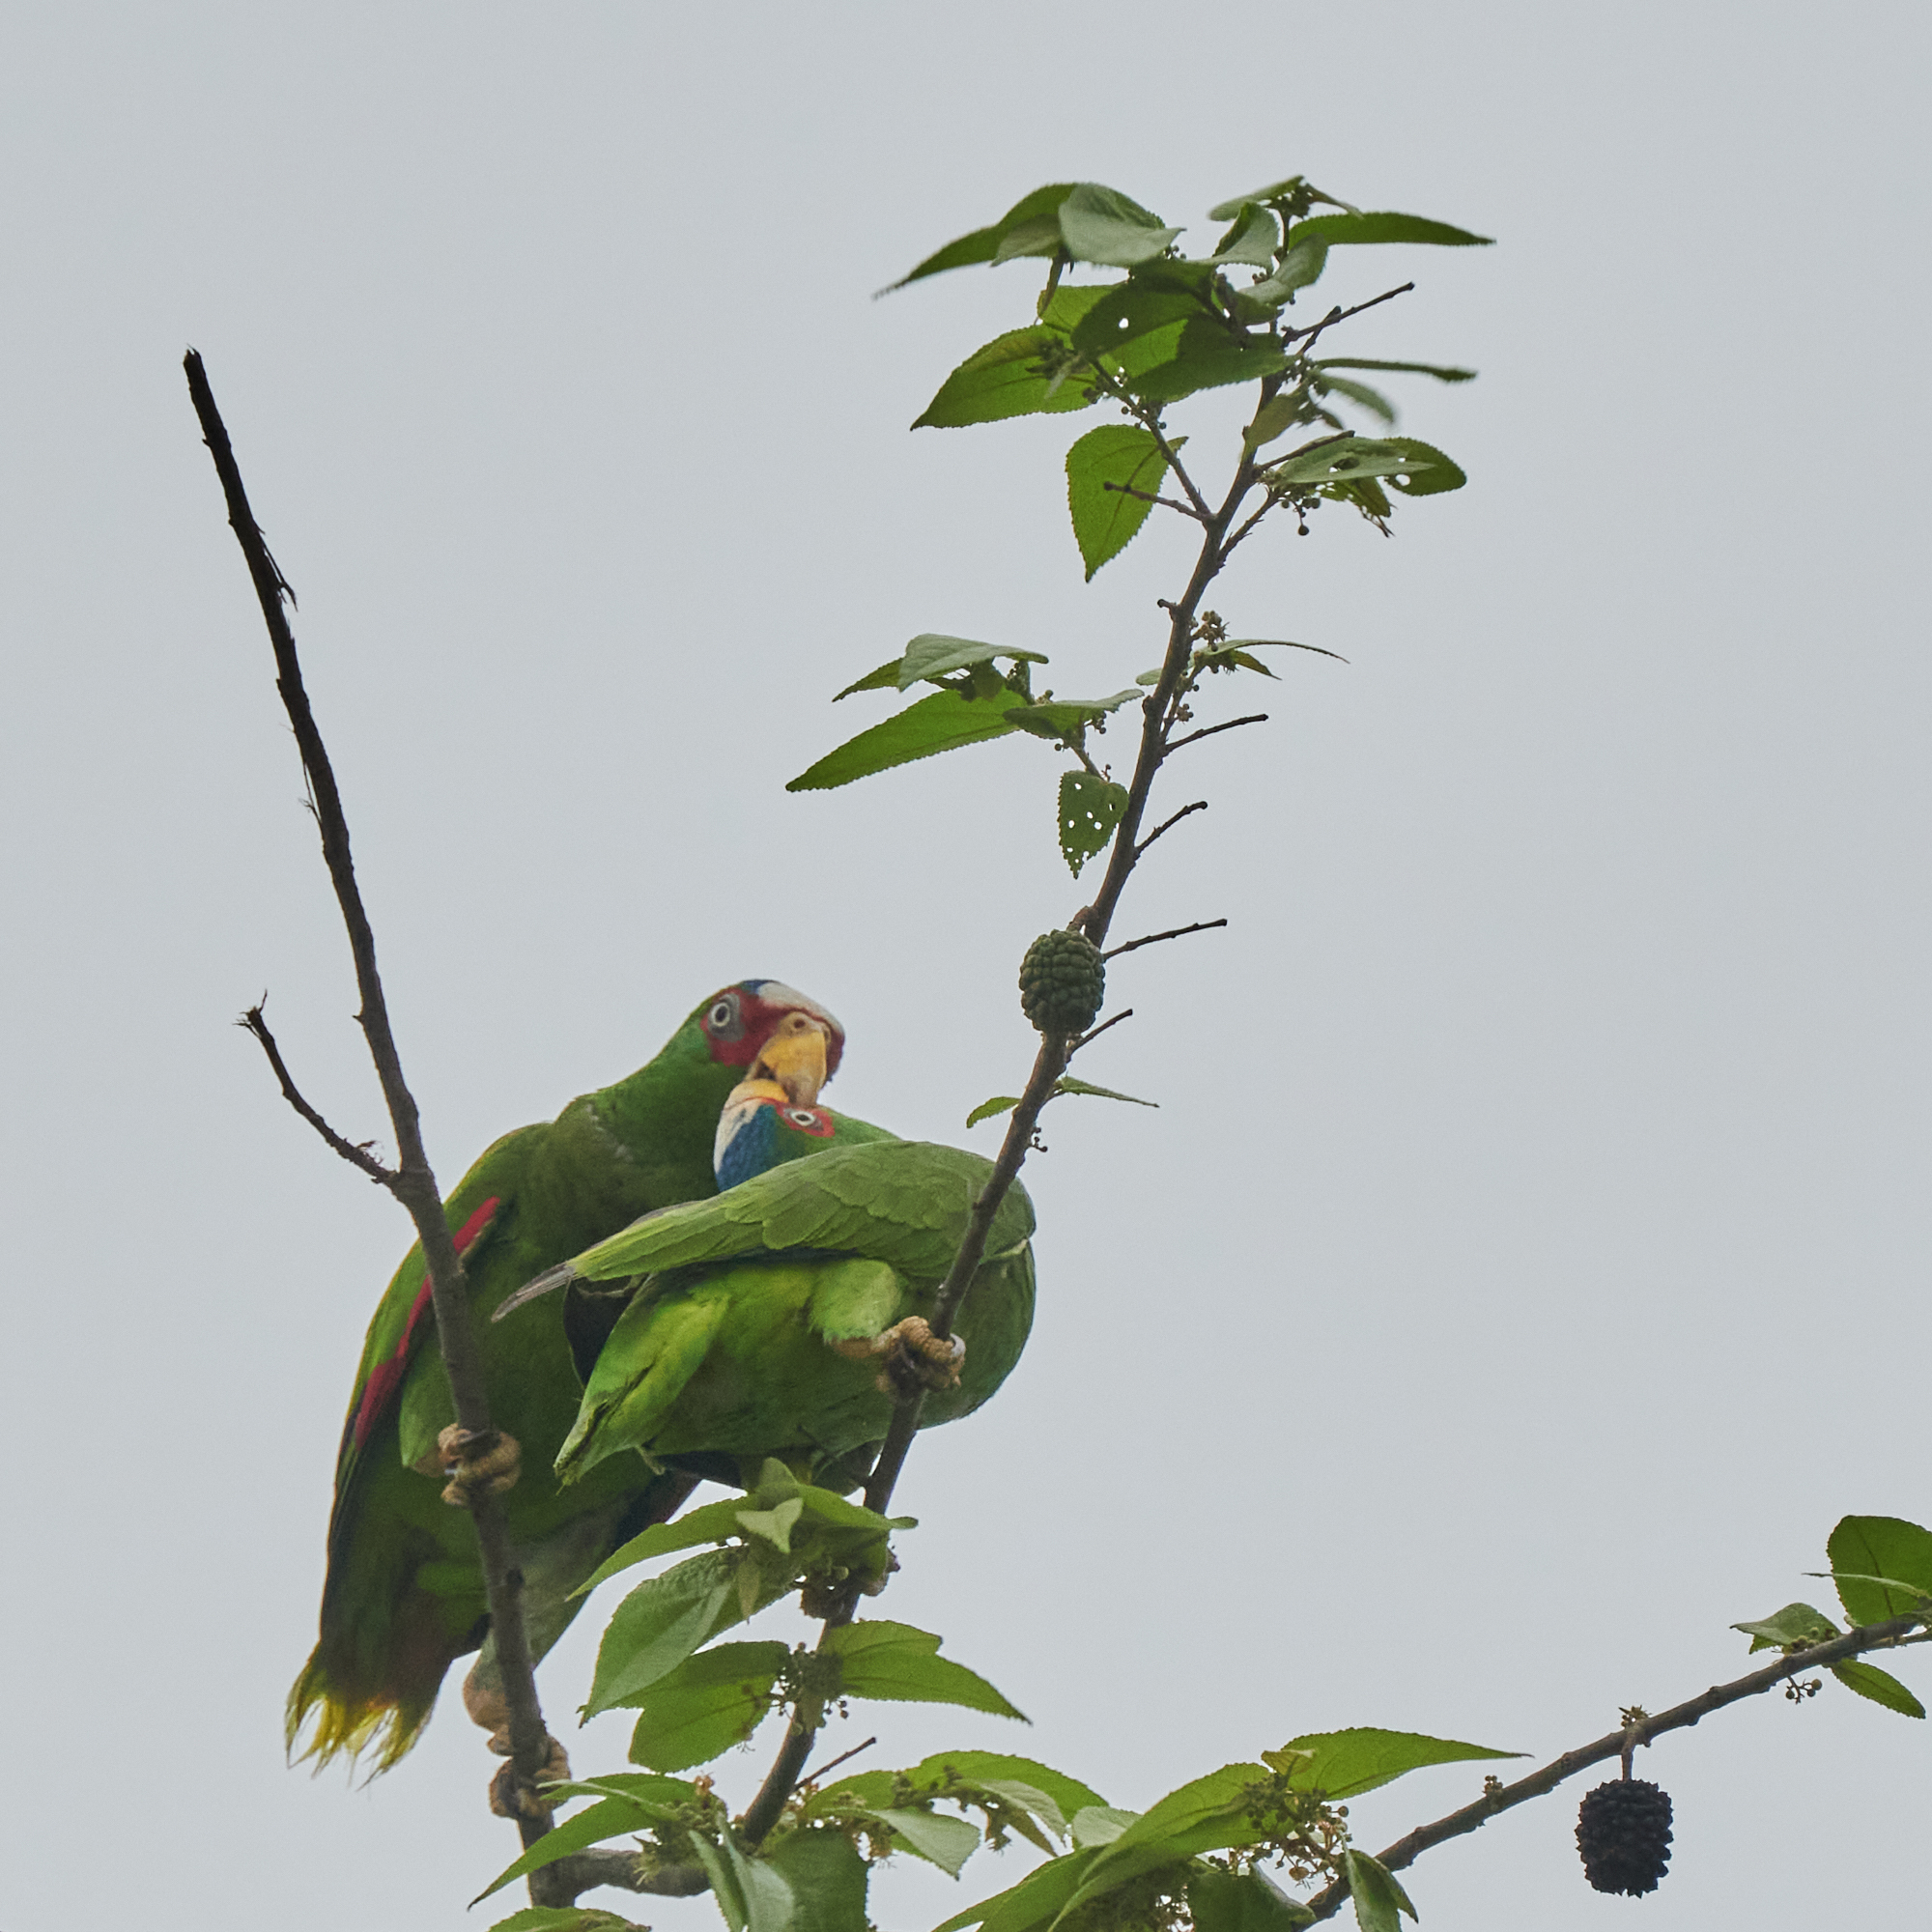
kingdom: Animalia
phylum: Chordata
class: Aves
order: Psittaciformes
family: Psittacidae
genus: Amazona
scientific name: Amazona albifrons
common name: White-fronted amazon
